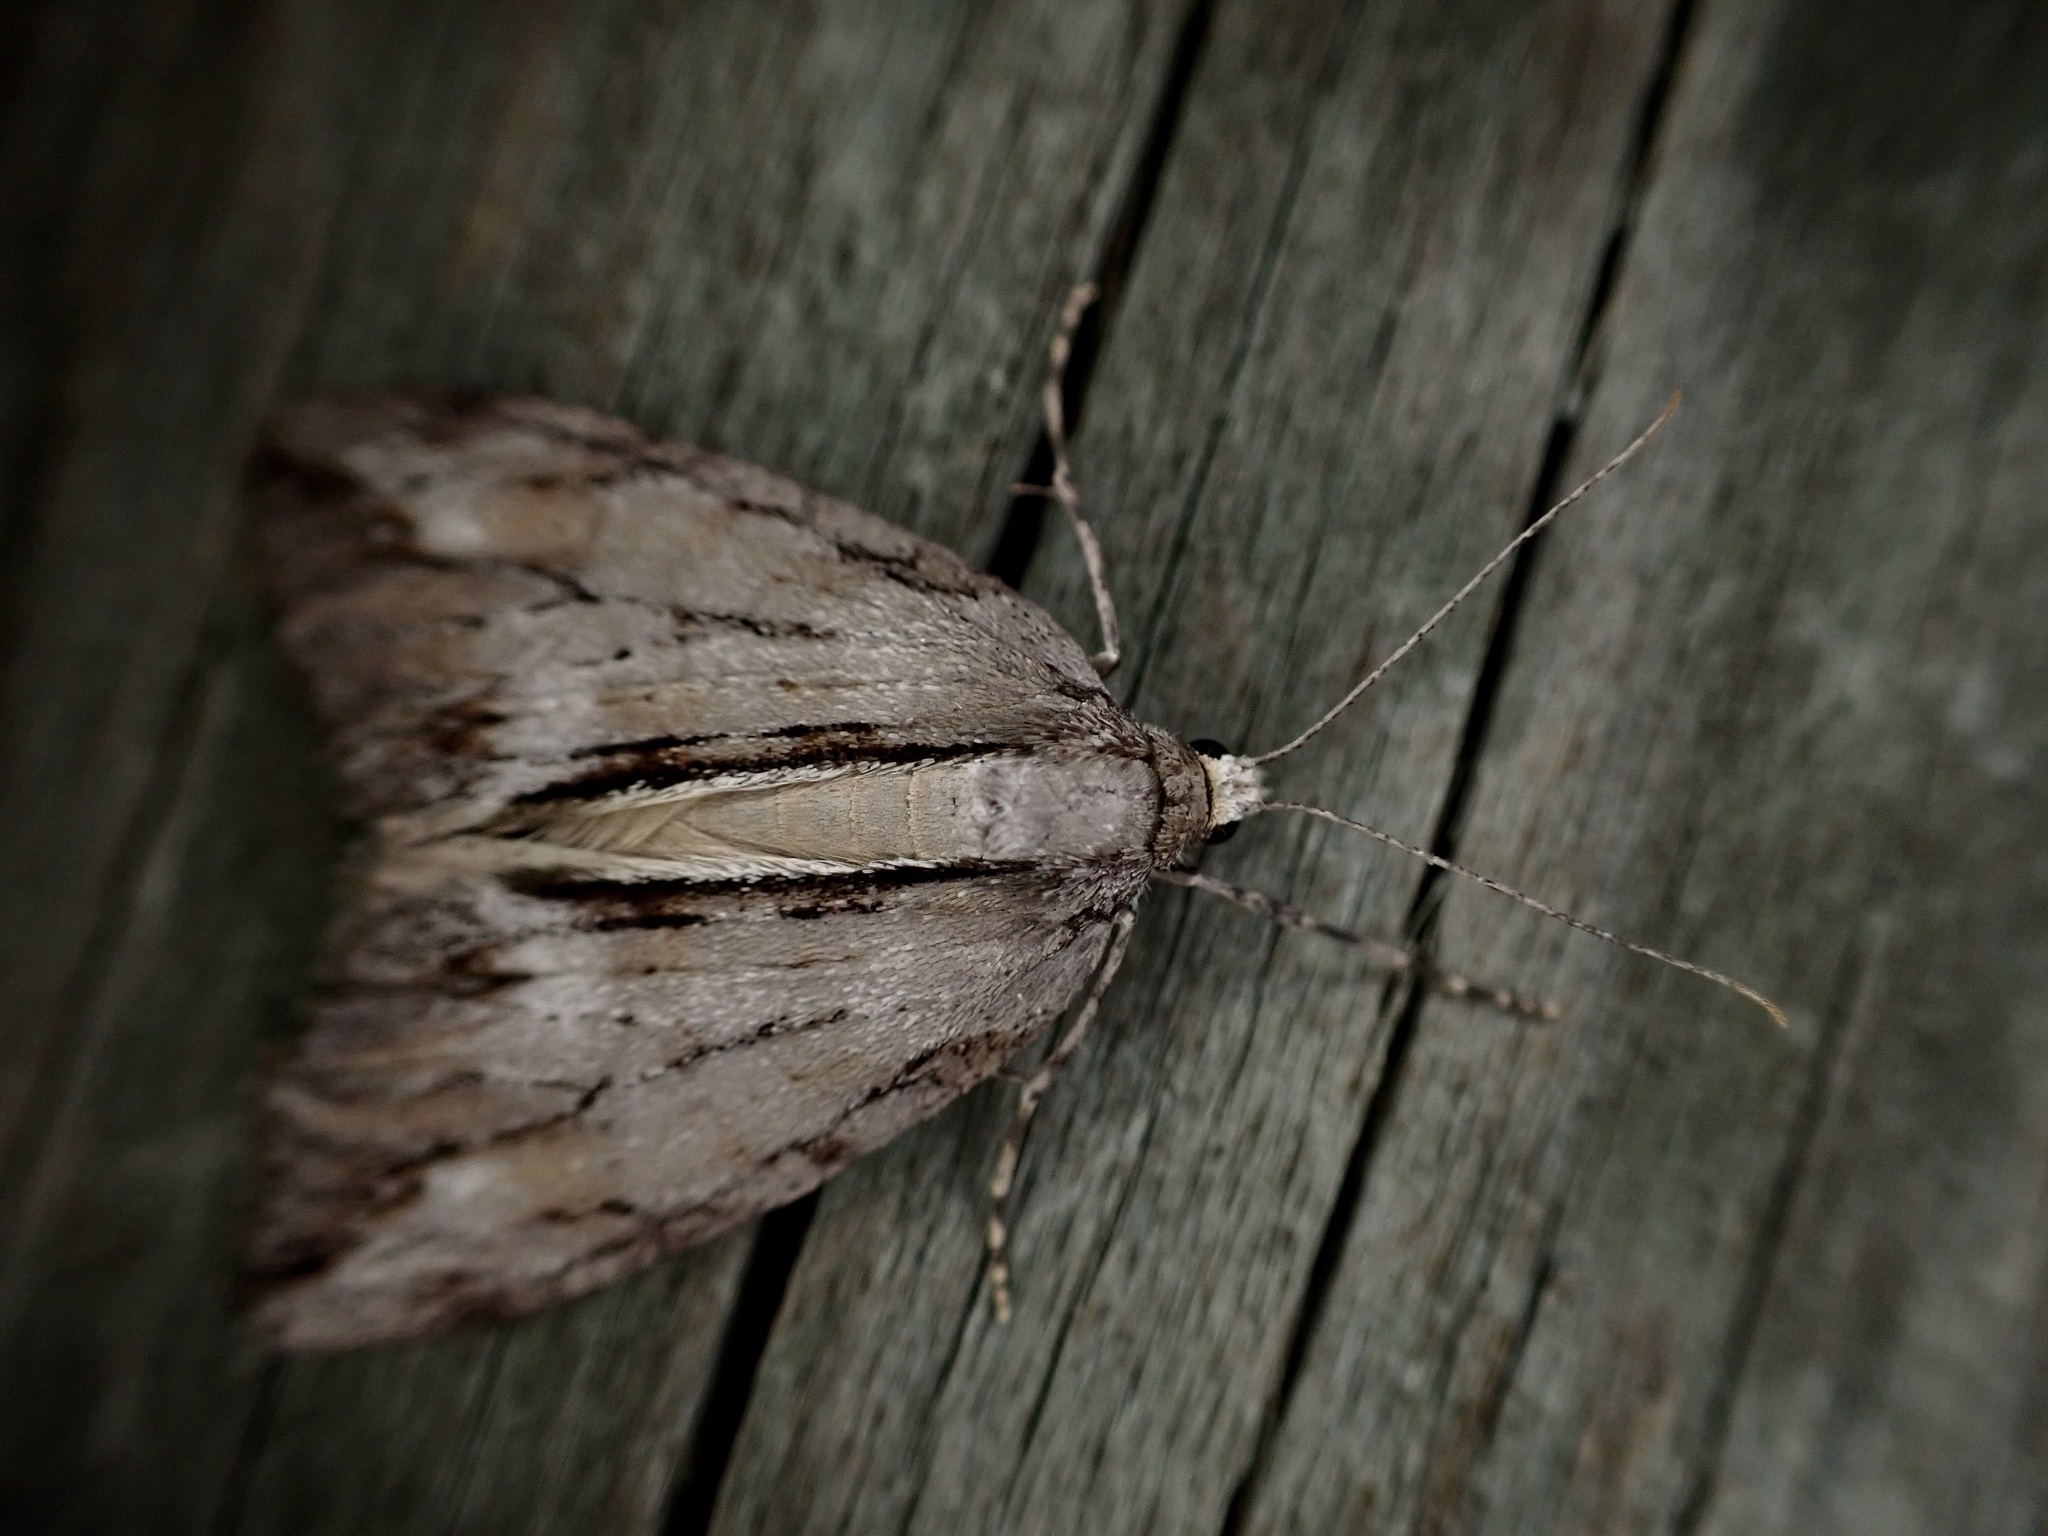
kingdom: Animalia
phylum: Arthropoda
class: Insecta
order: Lepidoptera
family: Geometridae
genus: Pseudocoremia
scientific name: Pseudocoremia lupinata
